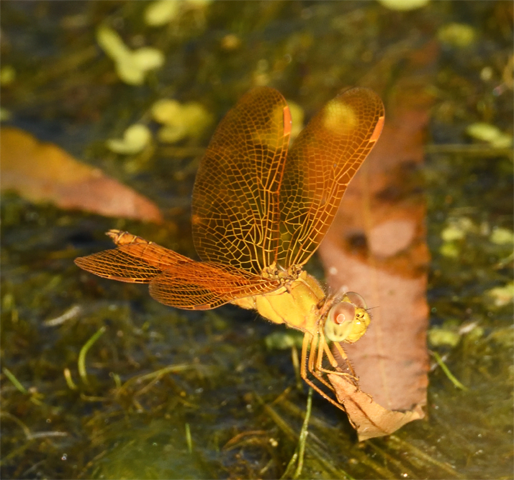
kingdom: Animalia
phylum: Arthropoda
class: Insecta
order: Odonata
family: Libellulidae
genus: Perithemis
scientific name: Perithemis intensa
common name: Mexican amberwing
